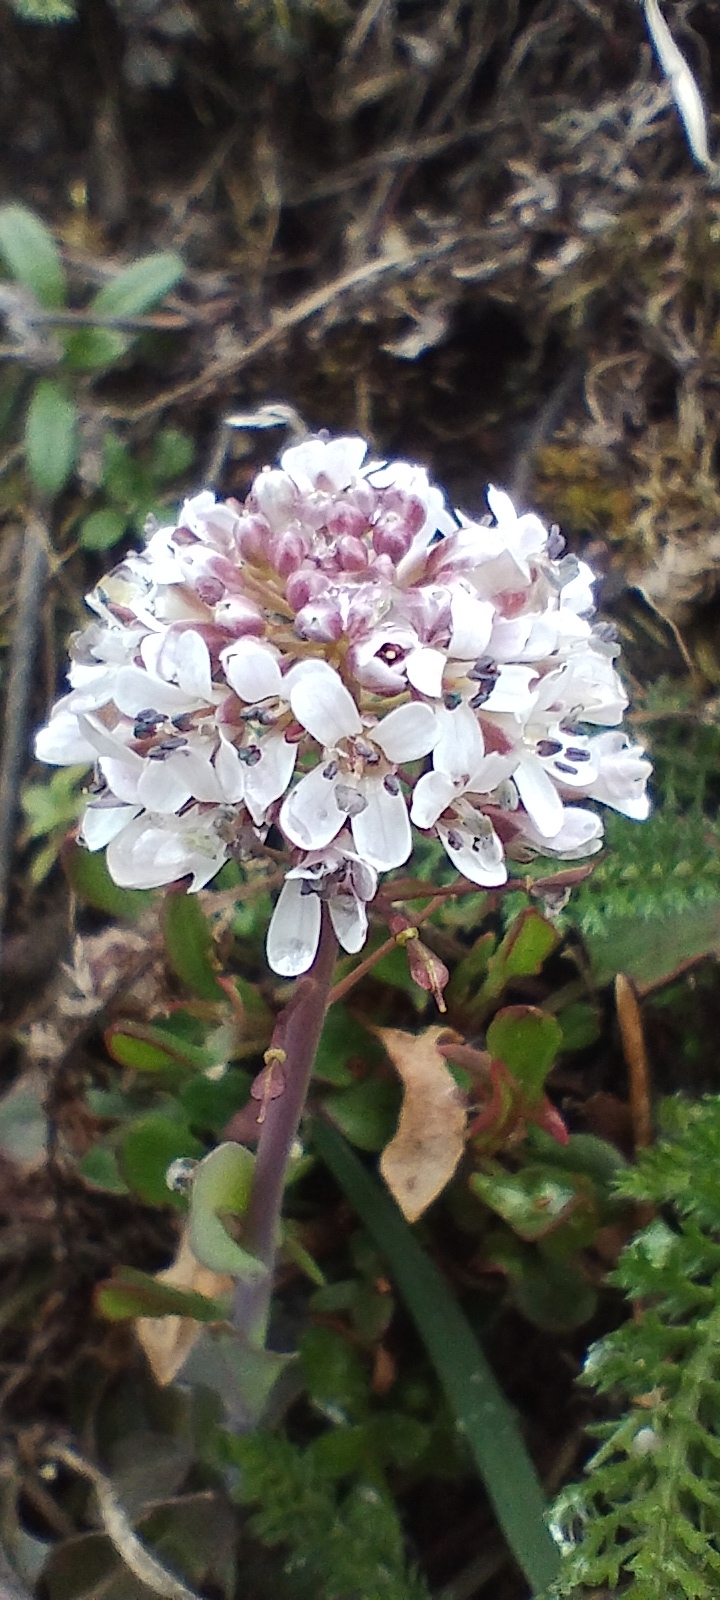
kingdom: Plantae
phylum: Tracheophyta
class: Magnoliopsida
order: Brassicales
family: Brassicaceae
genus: Noccaea
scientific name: Noccaea caerulescens
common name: Alpine pennycress
